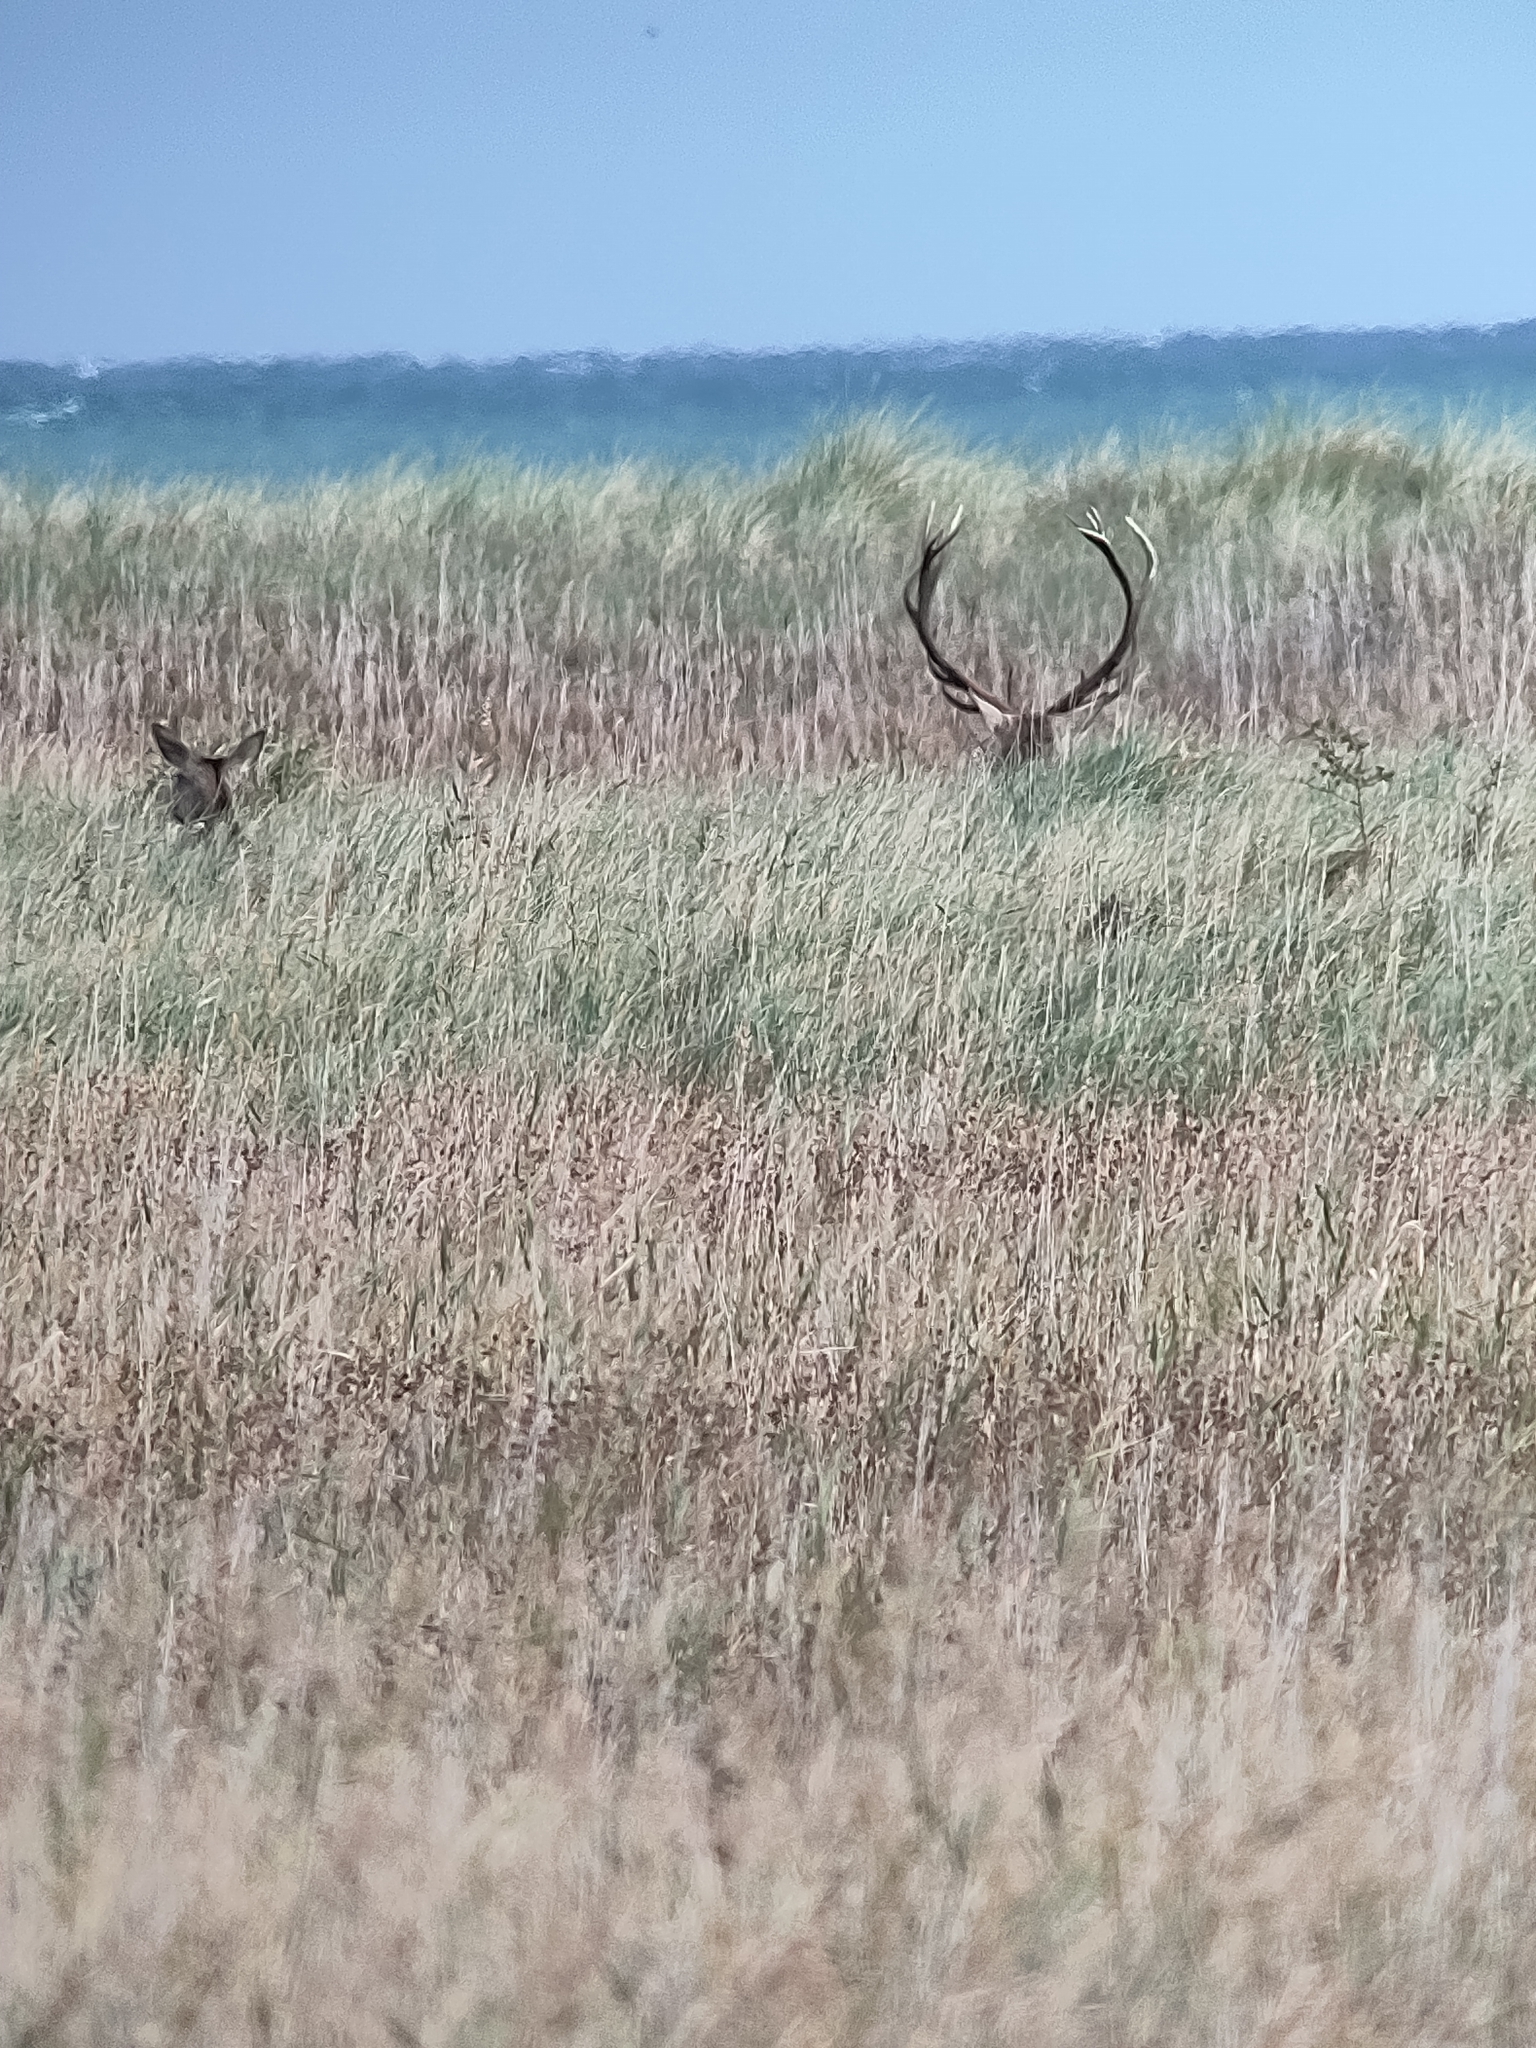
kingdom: Animalia
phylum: Chordata
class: Mammalia
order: Artiodactyla
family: Cervidae
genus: Cervus
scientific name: Cervus elaphus
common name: Red deer
